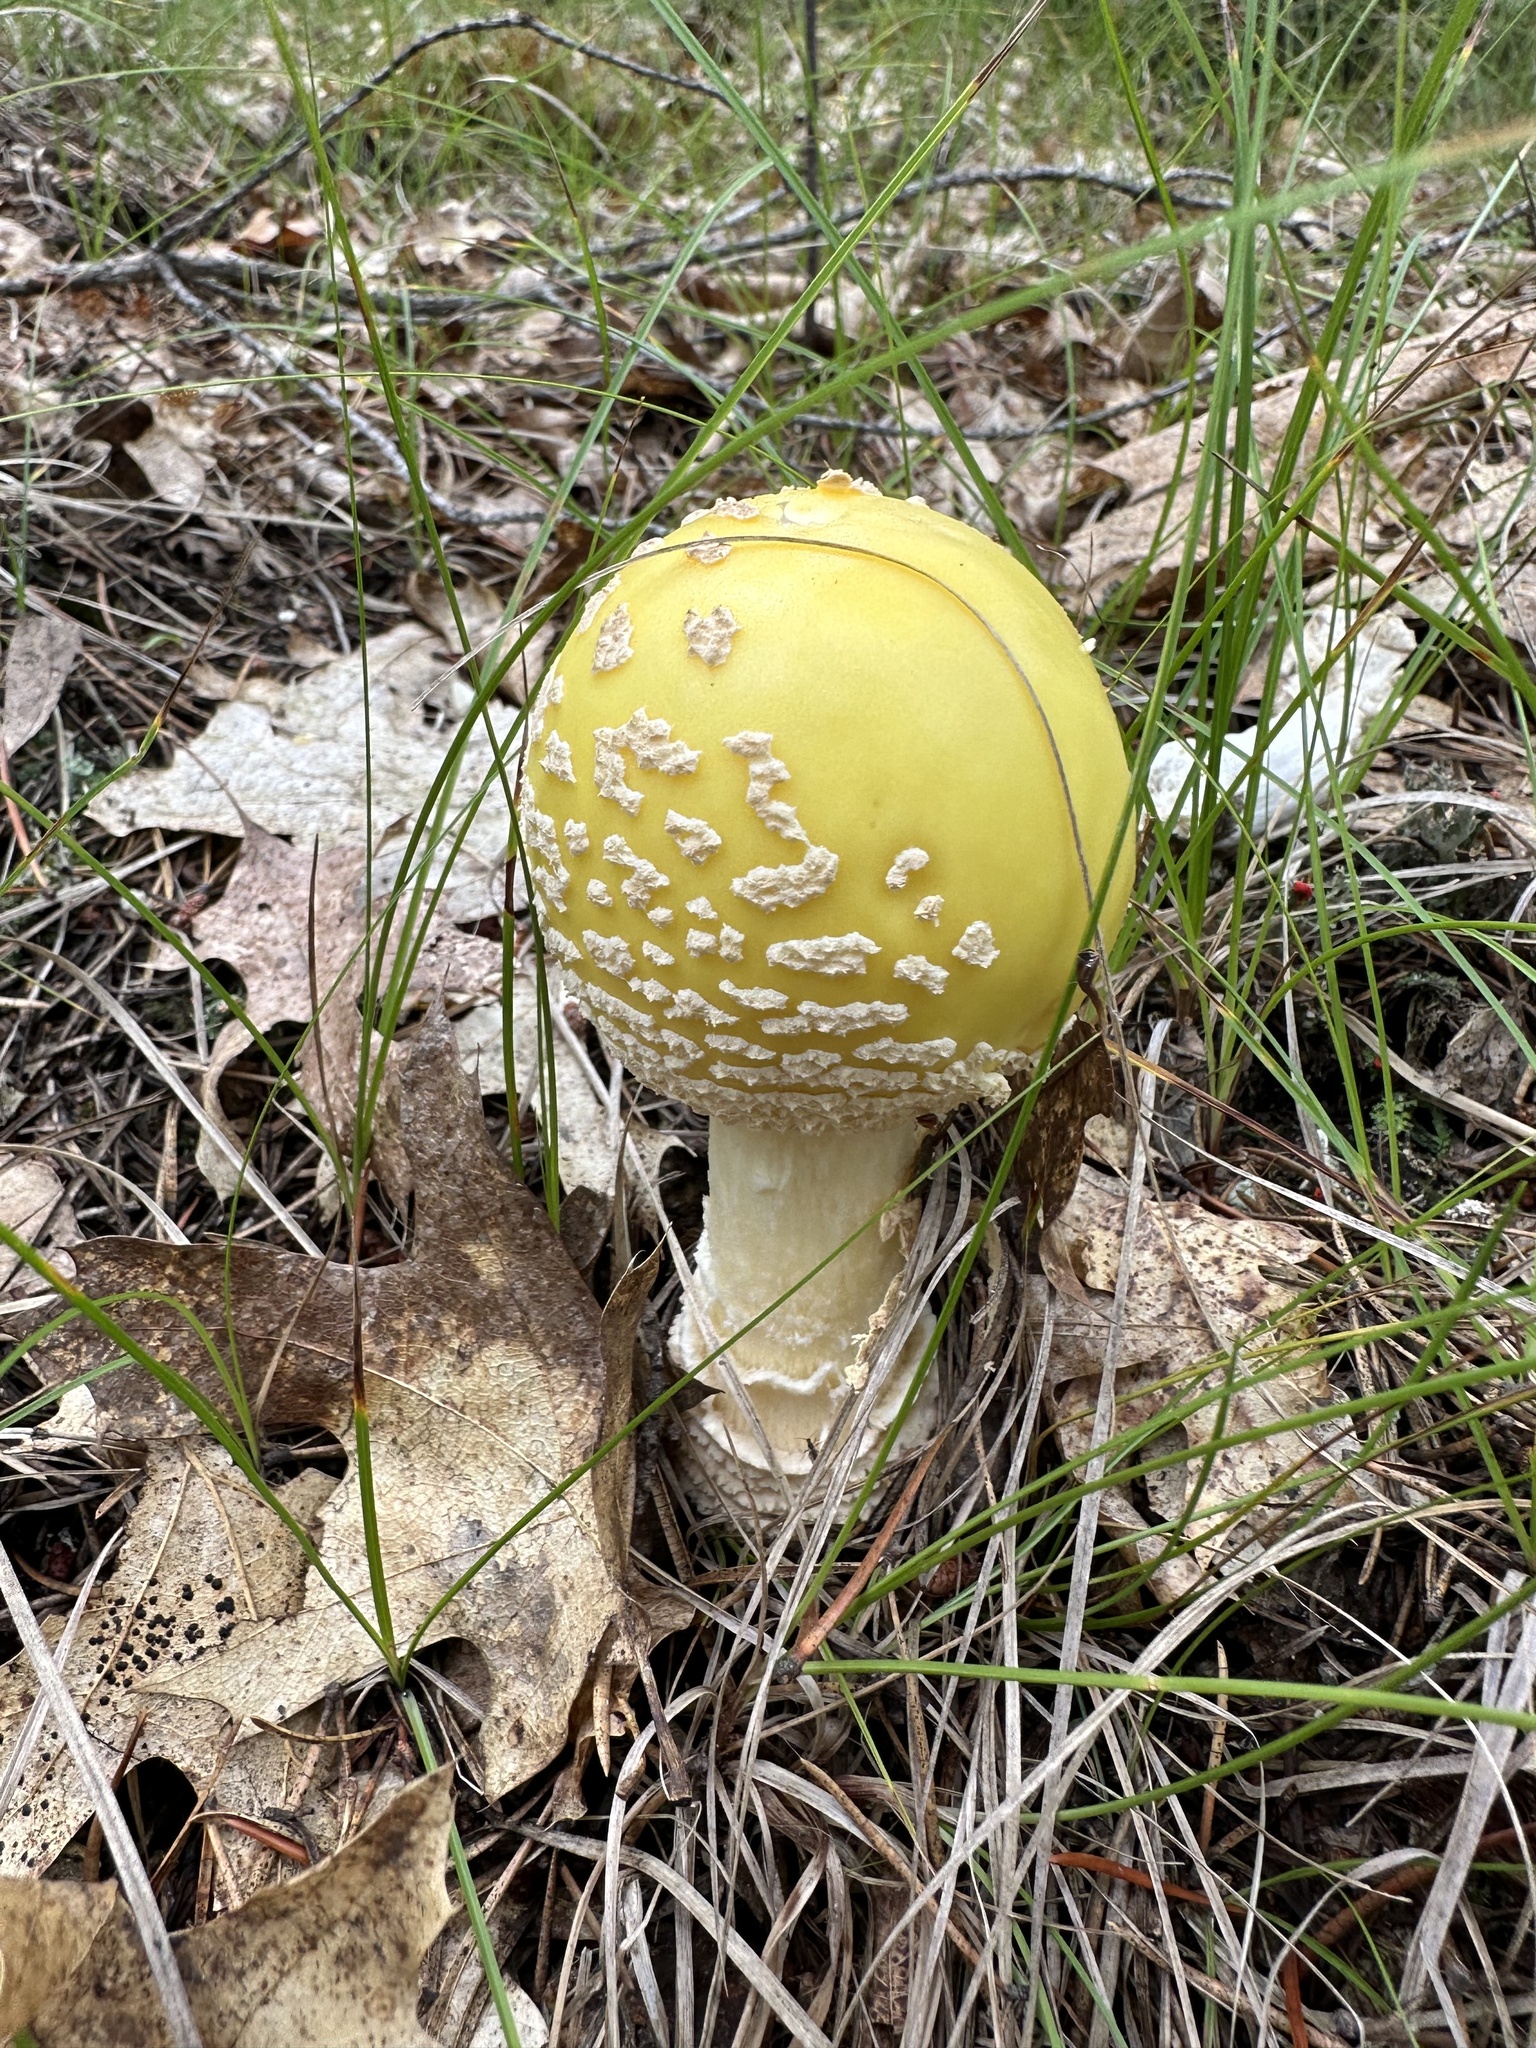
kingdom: Fungi
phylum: Basidiomycota
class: Agaricomycetes
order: Agaricales
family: Amanitaceae
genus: Amanita
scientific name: Amanita muscaria
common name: Fly agaric
